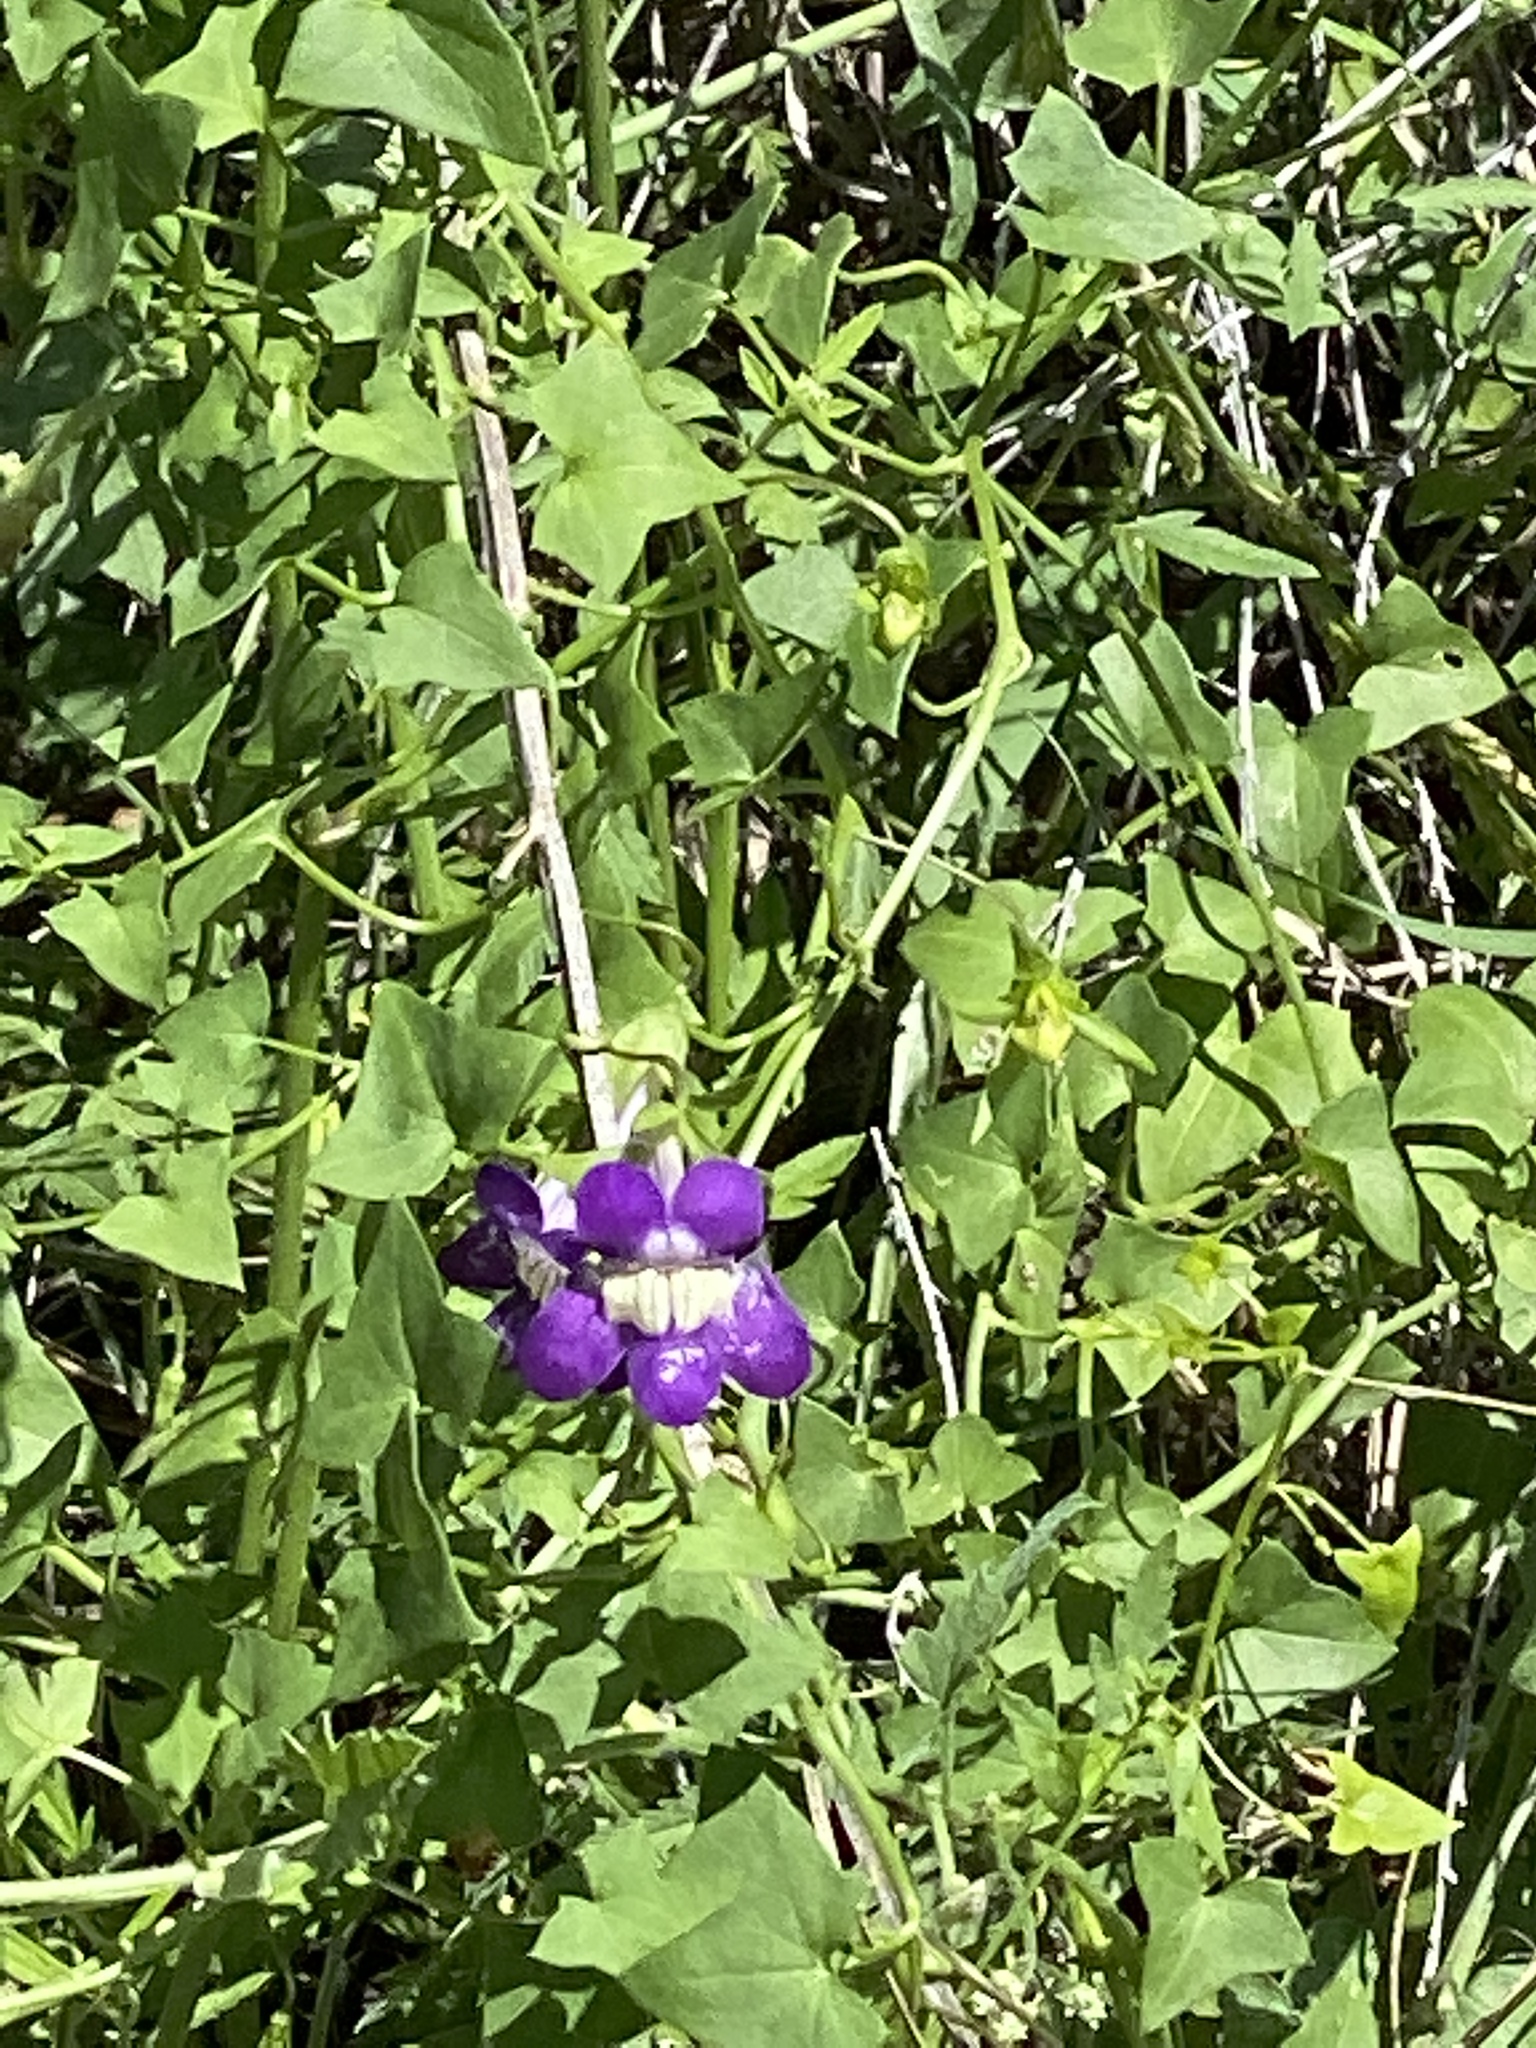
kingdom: Plantae
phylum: Tracheophyta
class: Magnoliopsida
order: Lamiales
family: Plantaginaceae
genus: Maurandella
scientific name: Maurandella antirrhiniflora
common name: Violet twining-snapdragon
